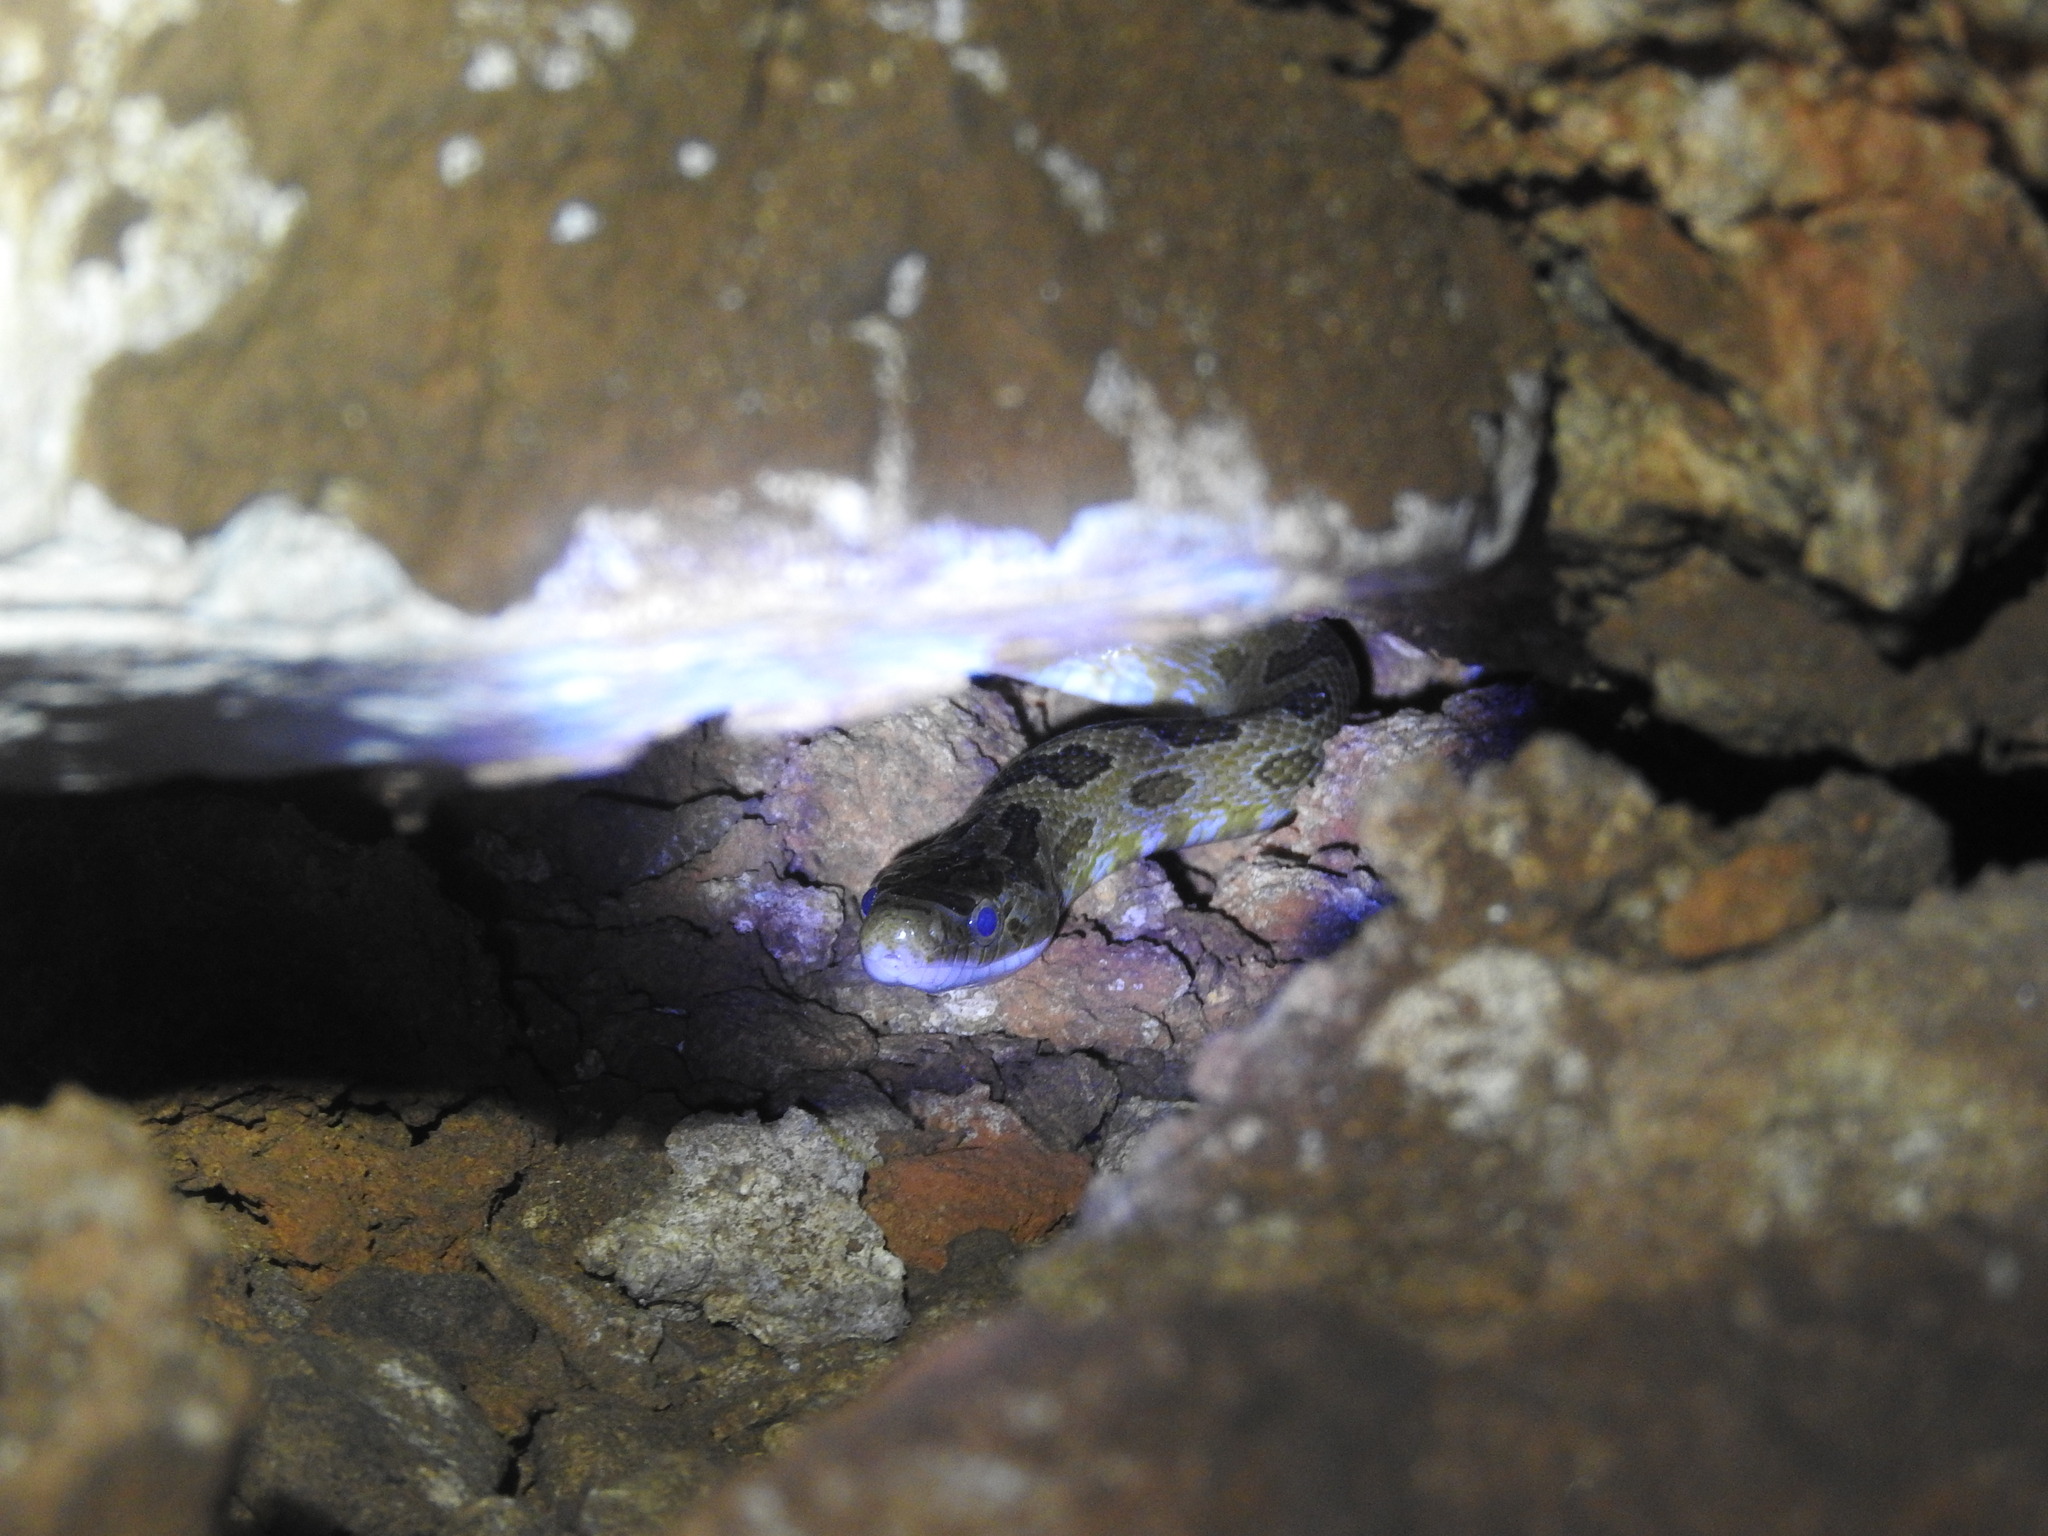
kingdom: Animalia
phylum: Chordata
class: Squamata
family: Colubridae
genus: Senticolis
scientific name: Senticolis triaspis
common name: Green rat snake
